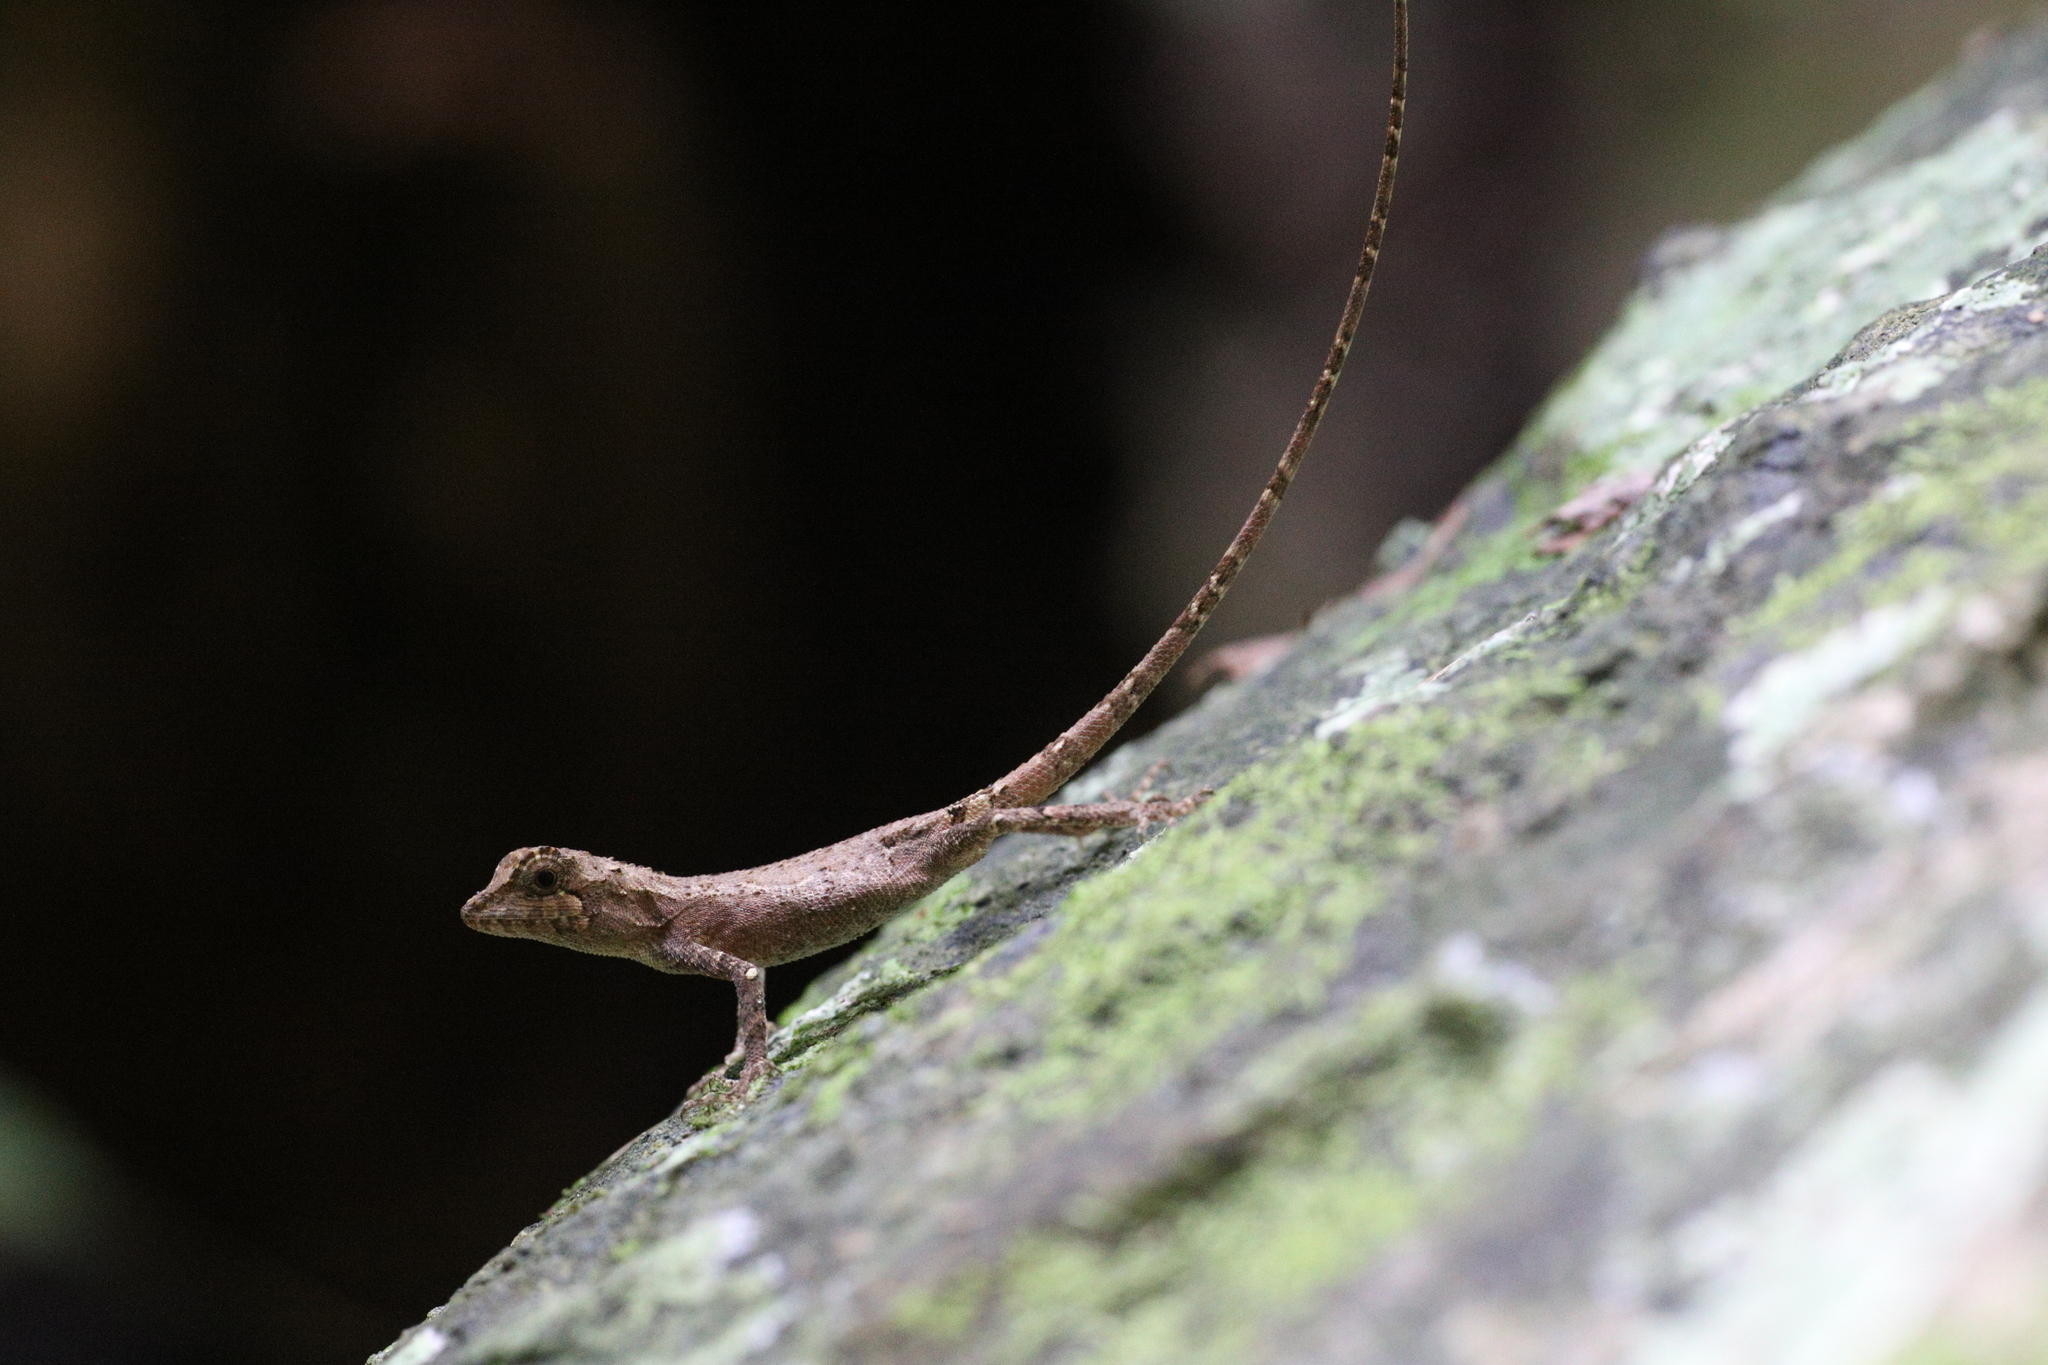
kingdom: Fungi
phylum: Basidiomycota
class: Agaricomycetes
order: Boletales
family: Diplocystidiaceae
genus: Diploderma
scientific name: Diploderma polygonatum
